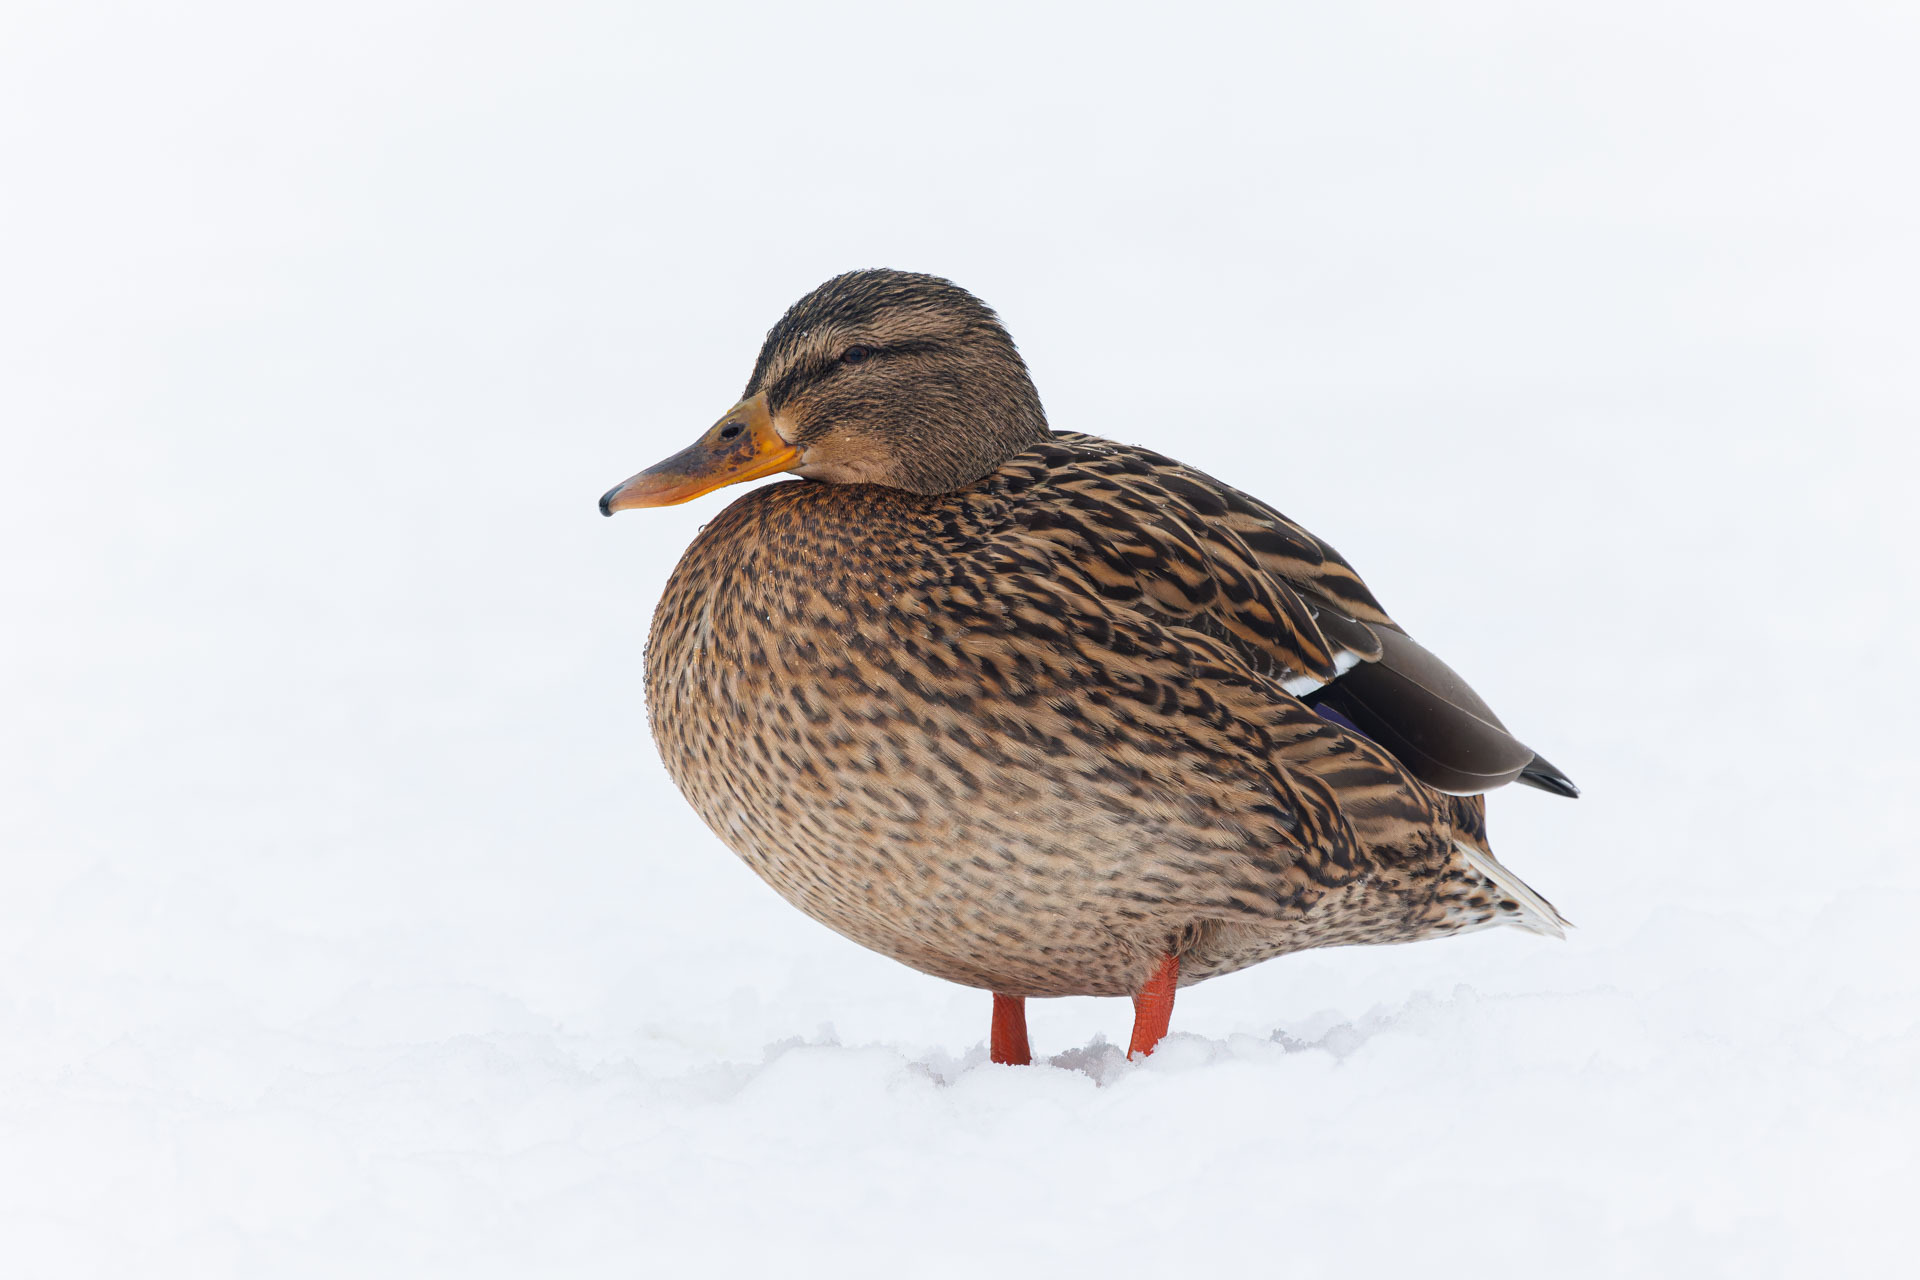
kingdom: Animalia
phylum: Chordata
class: Aves
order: Anseriformes
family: Anatidae
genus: Anas
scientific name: Anas platyrhynchos
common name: Mallard
